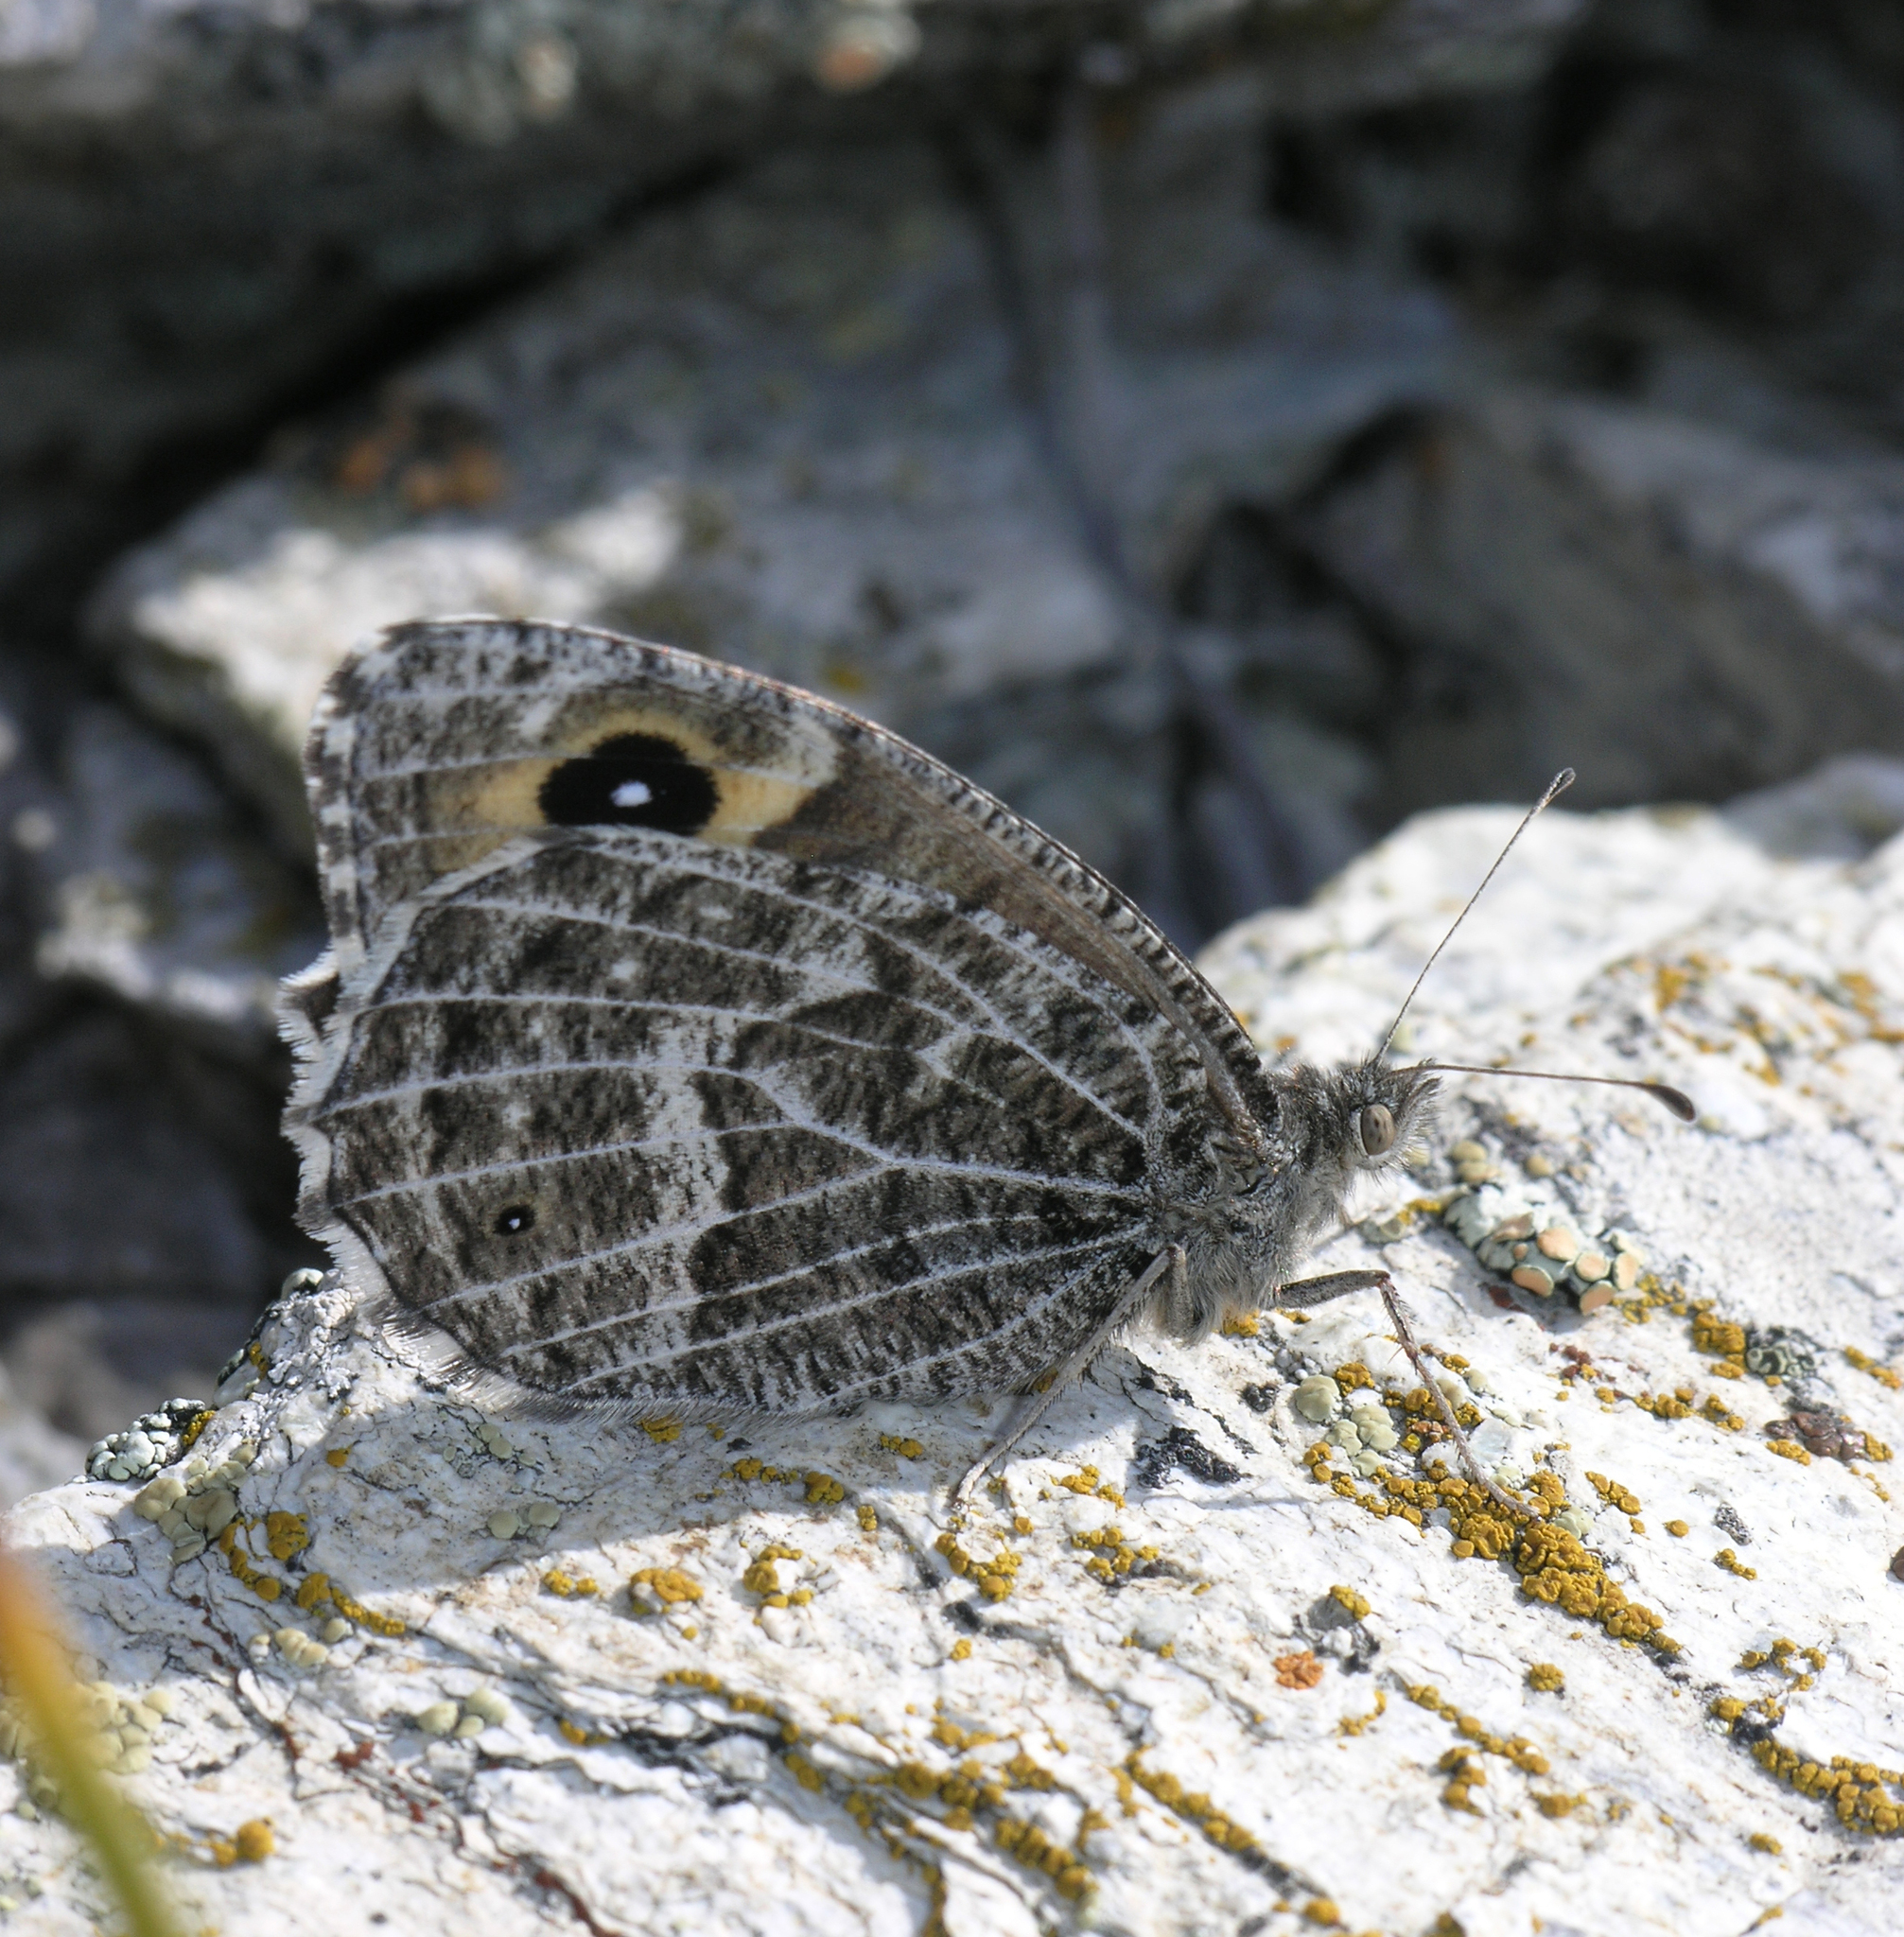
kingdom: Animalia
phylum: Arthropoda
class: Insecta
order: Lepidoptera
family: Nymphalidae
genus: Hipparchia
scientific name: Hipparchia autonoe
